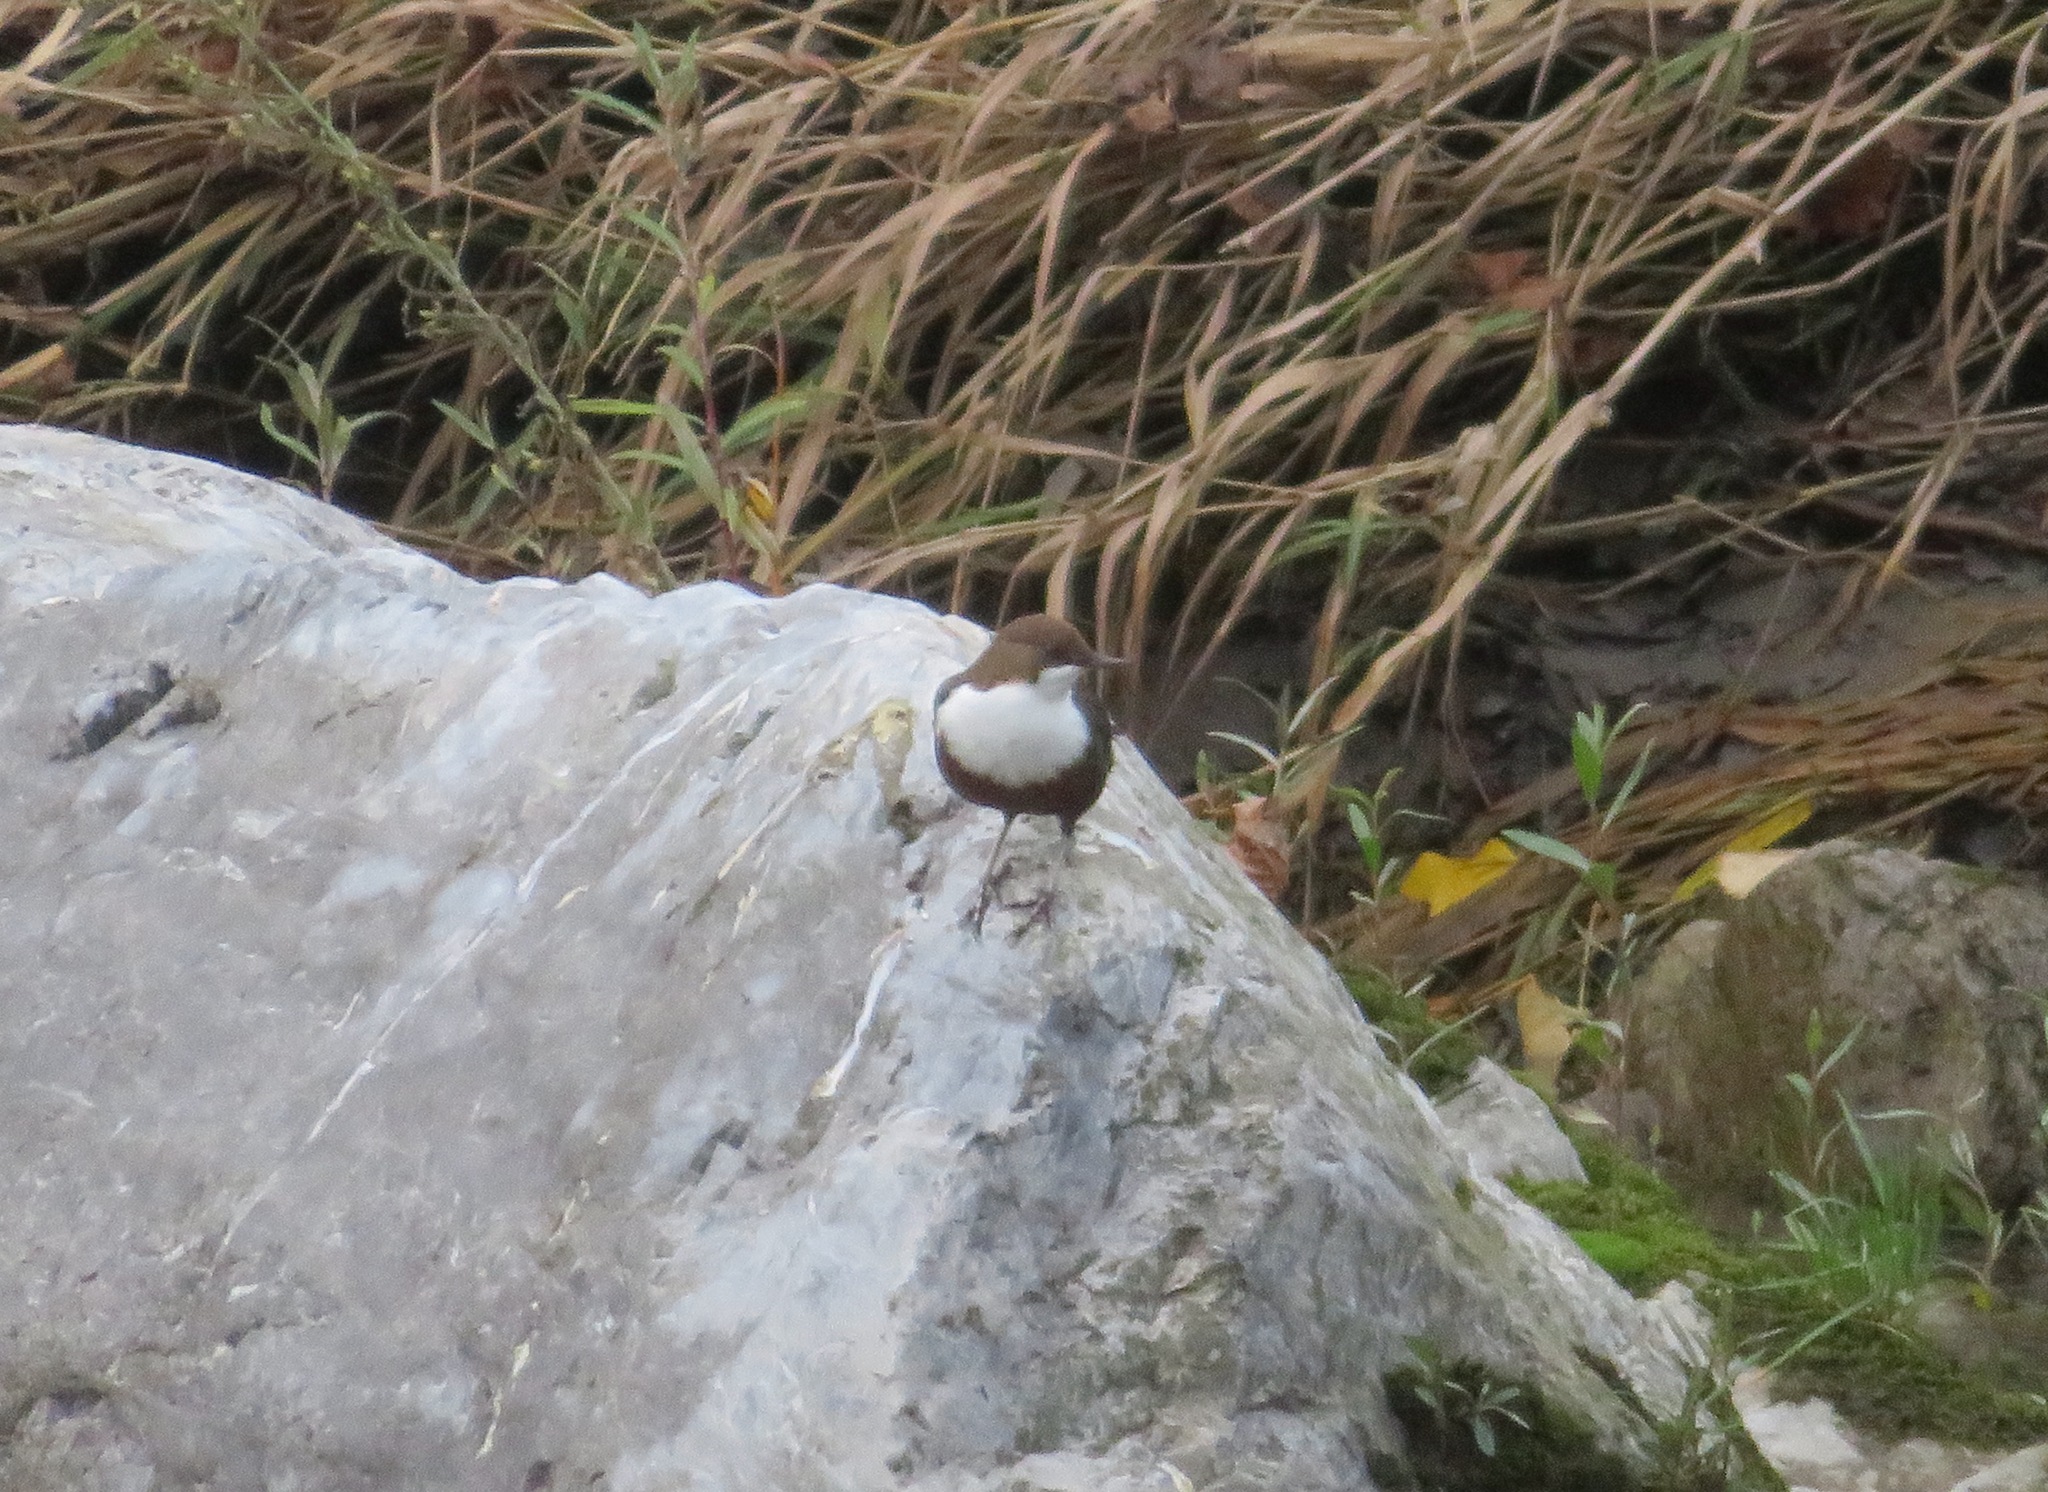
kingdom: Animalia
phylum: Chordata
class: Aves
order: Passeriformes
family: Cinclidae
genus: Cinclus
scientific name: Cinclus cinclus
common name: White-throated dipper
